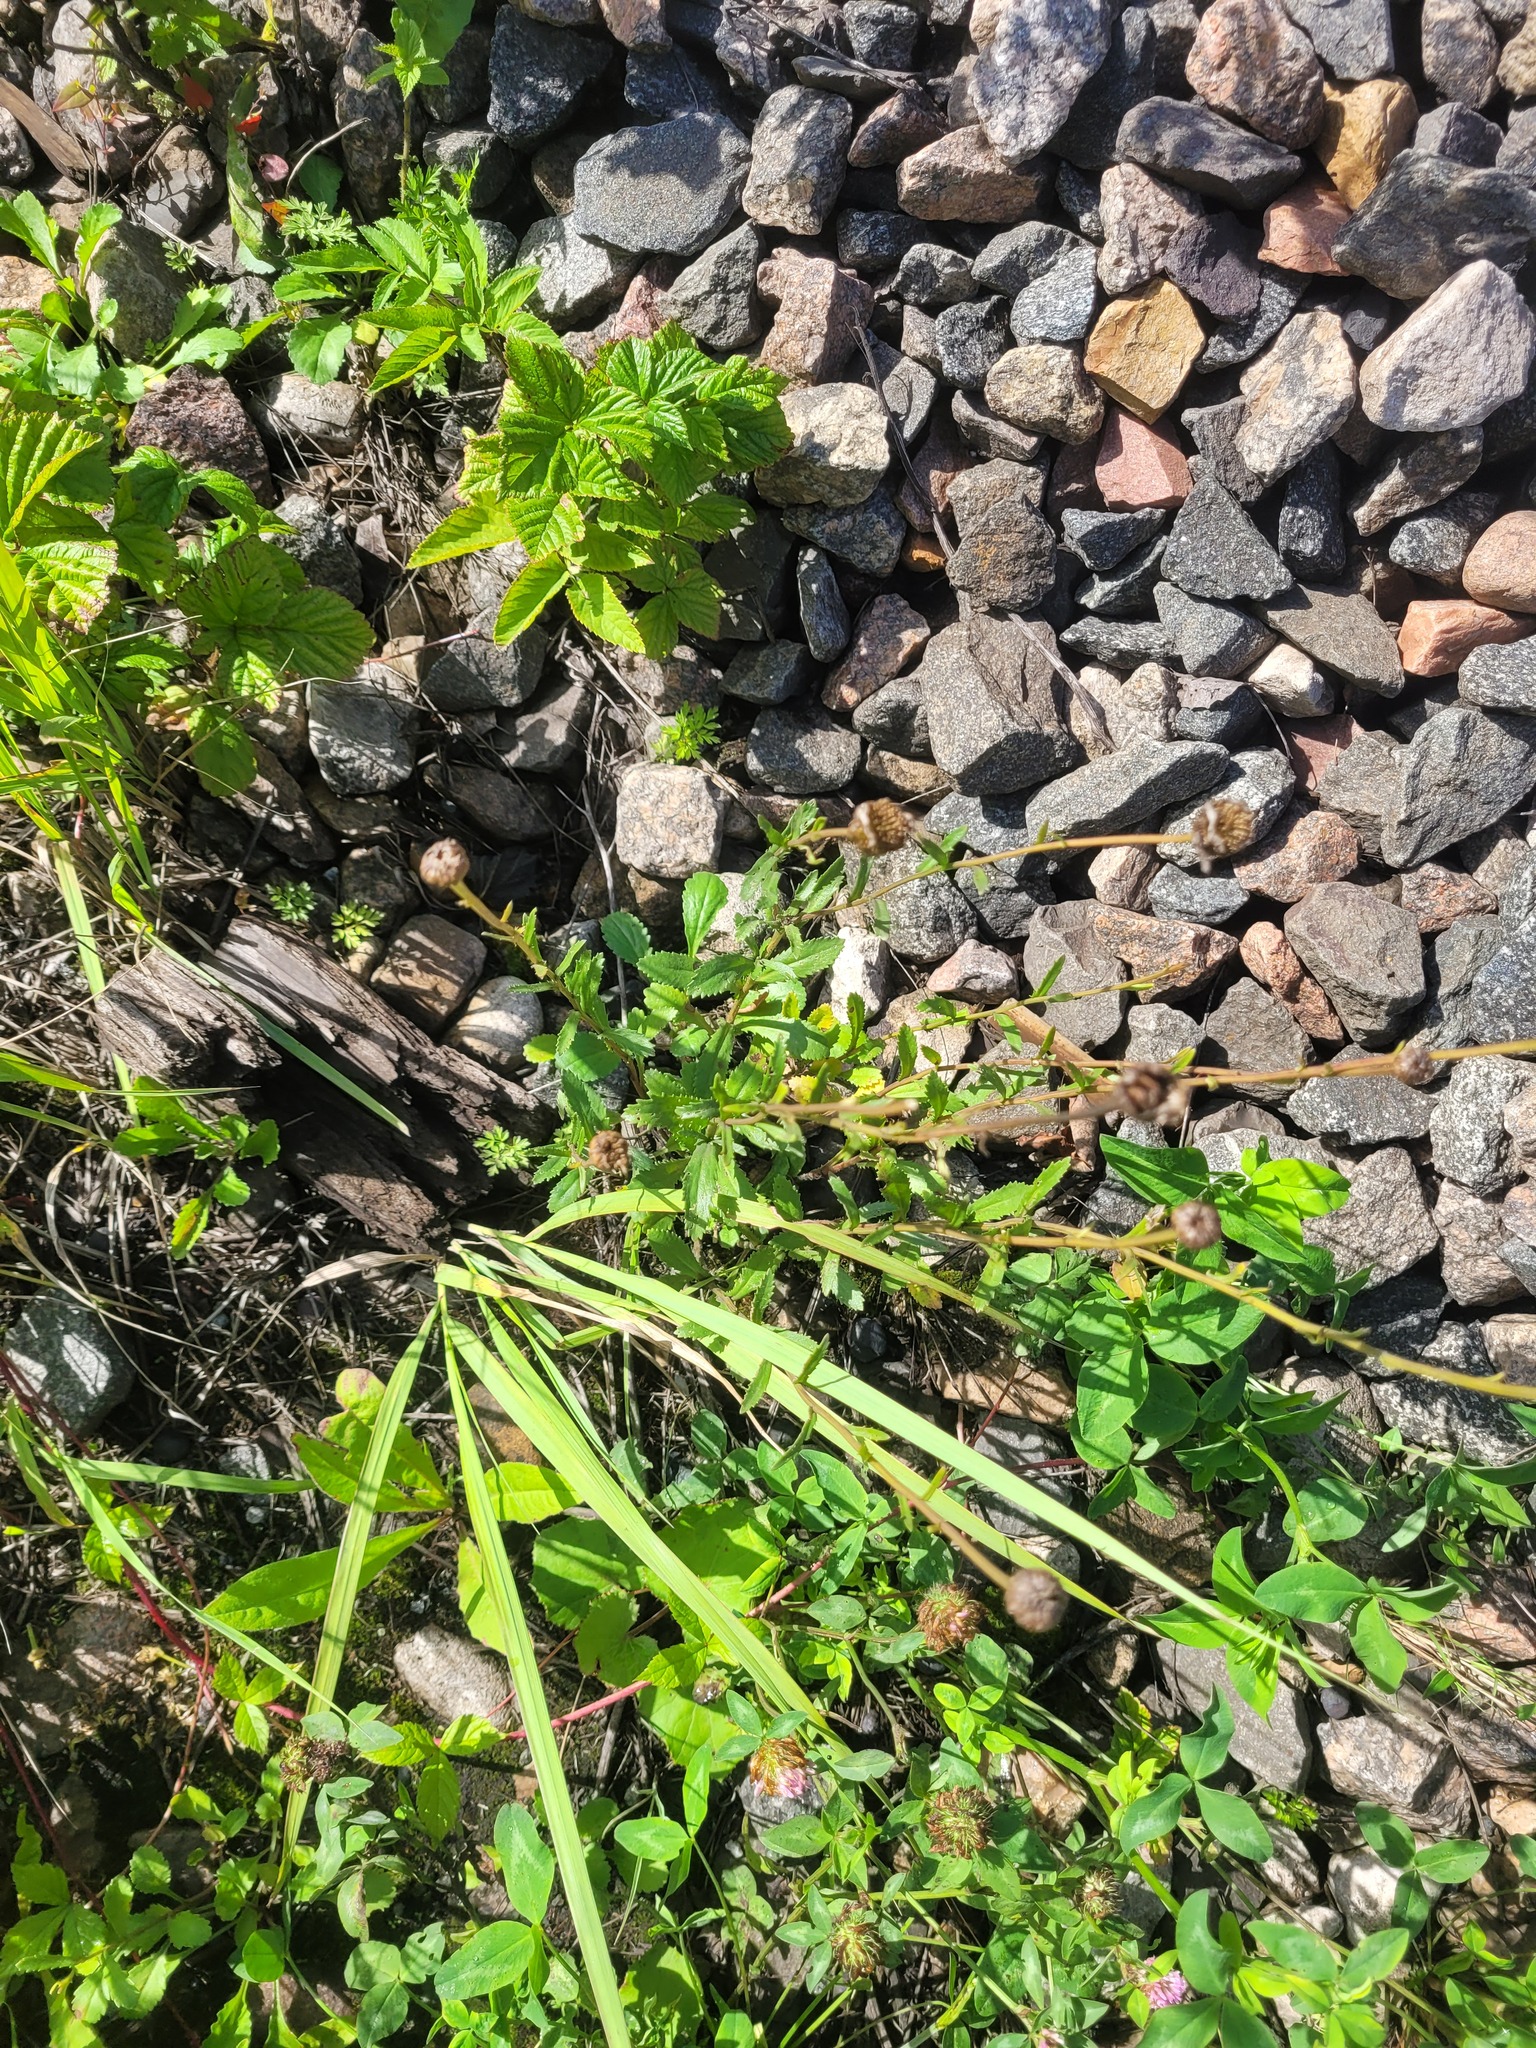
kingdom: Plantae
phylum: Tracheophyta
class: Magnoliopsida
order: Asterales
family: Asteraceae
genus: Leucanthemum
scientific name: Leucanthemum vulgare
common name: Oxeye daisy
